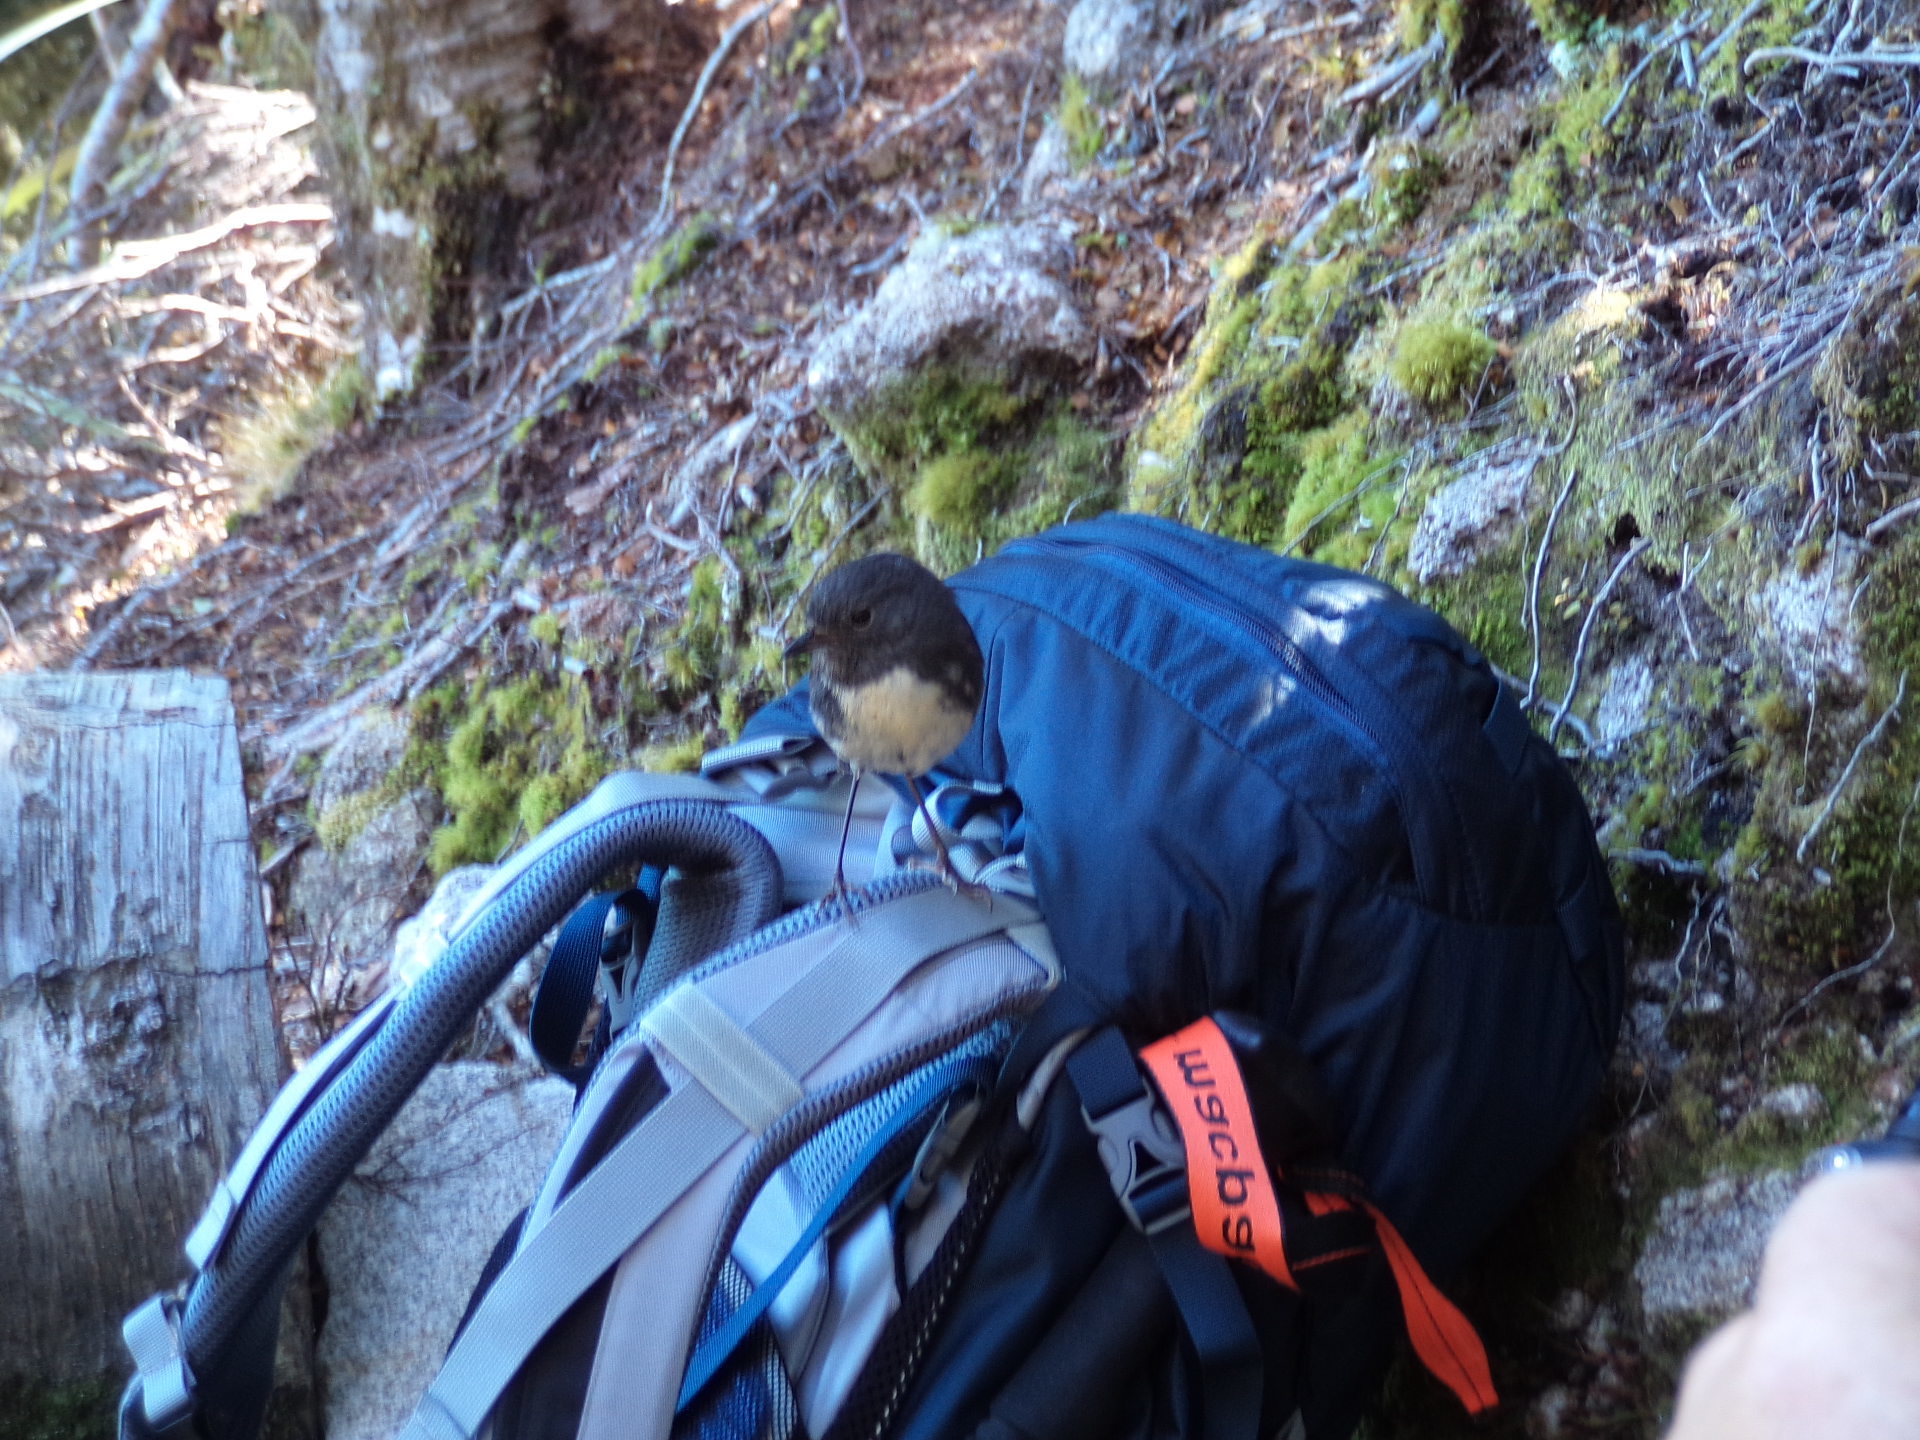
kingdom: Animalia
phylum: Chordata
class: Aves
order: Passeriformes
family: Petroicidae
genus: Petroica
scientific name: Petroica australis
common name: New zealand robin
